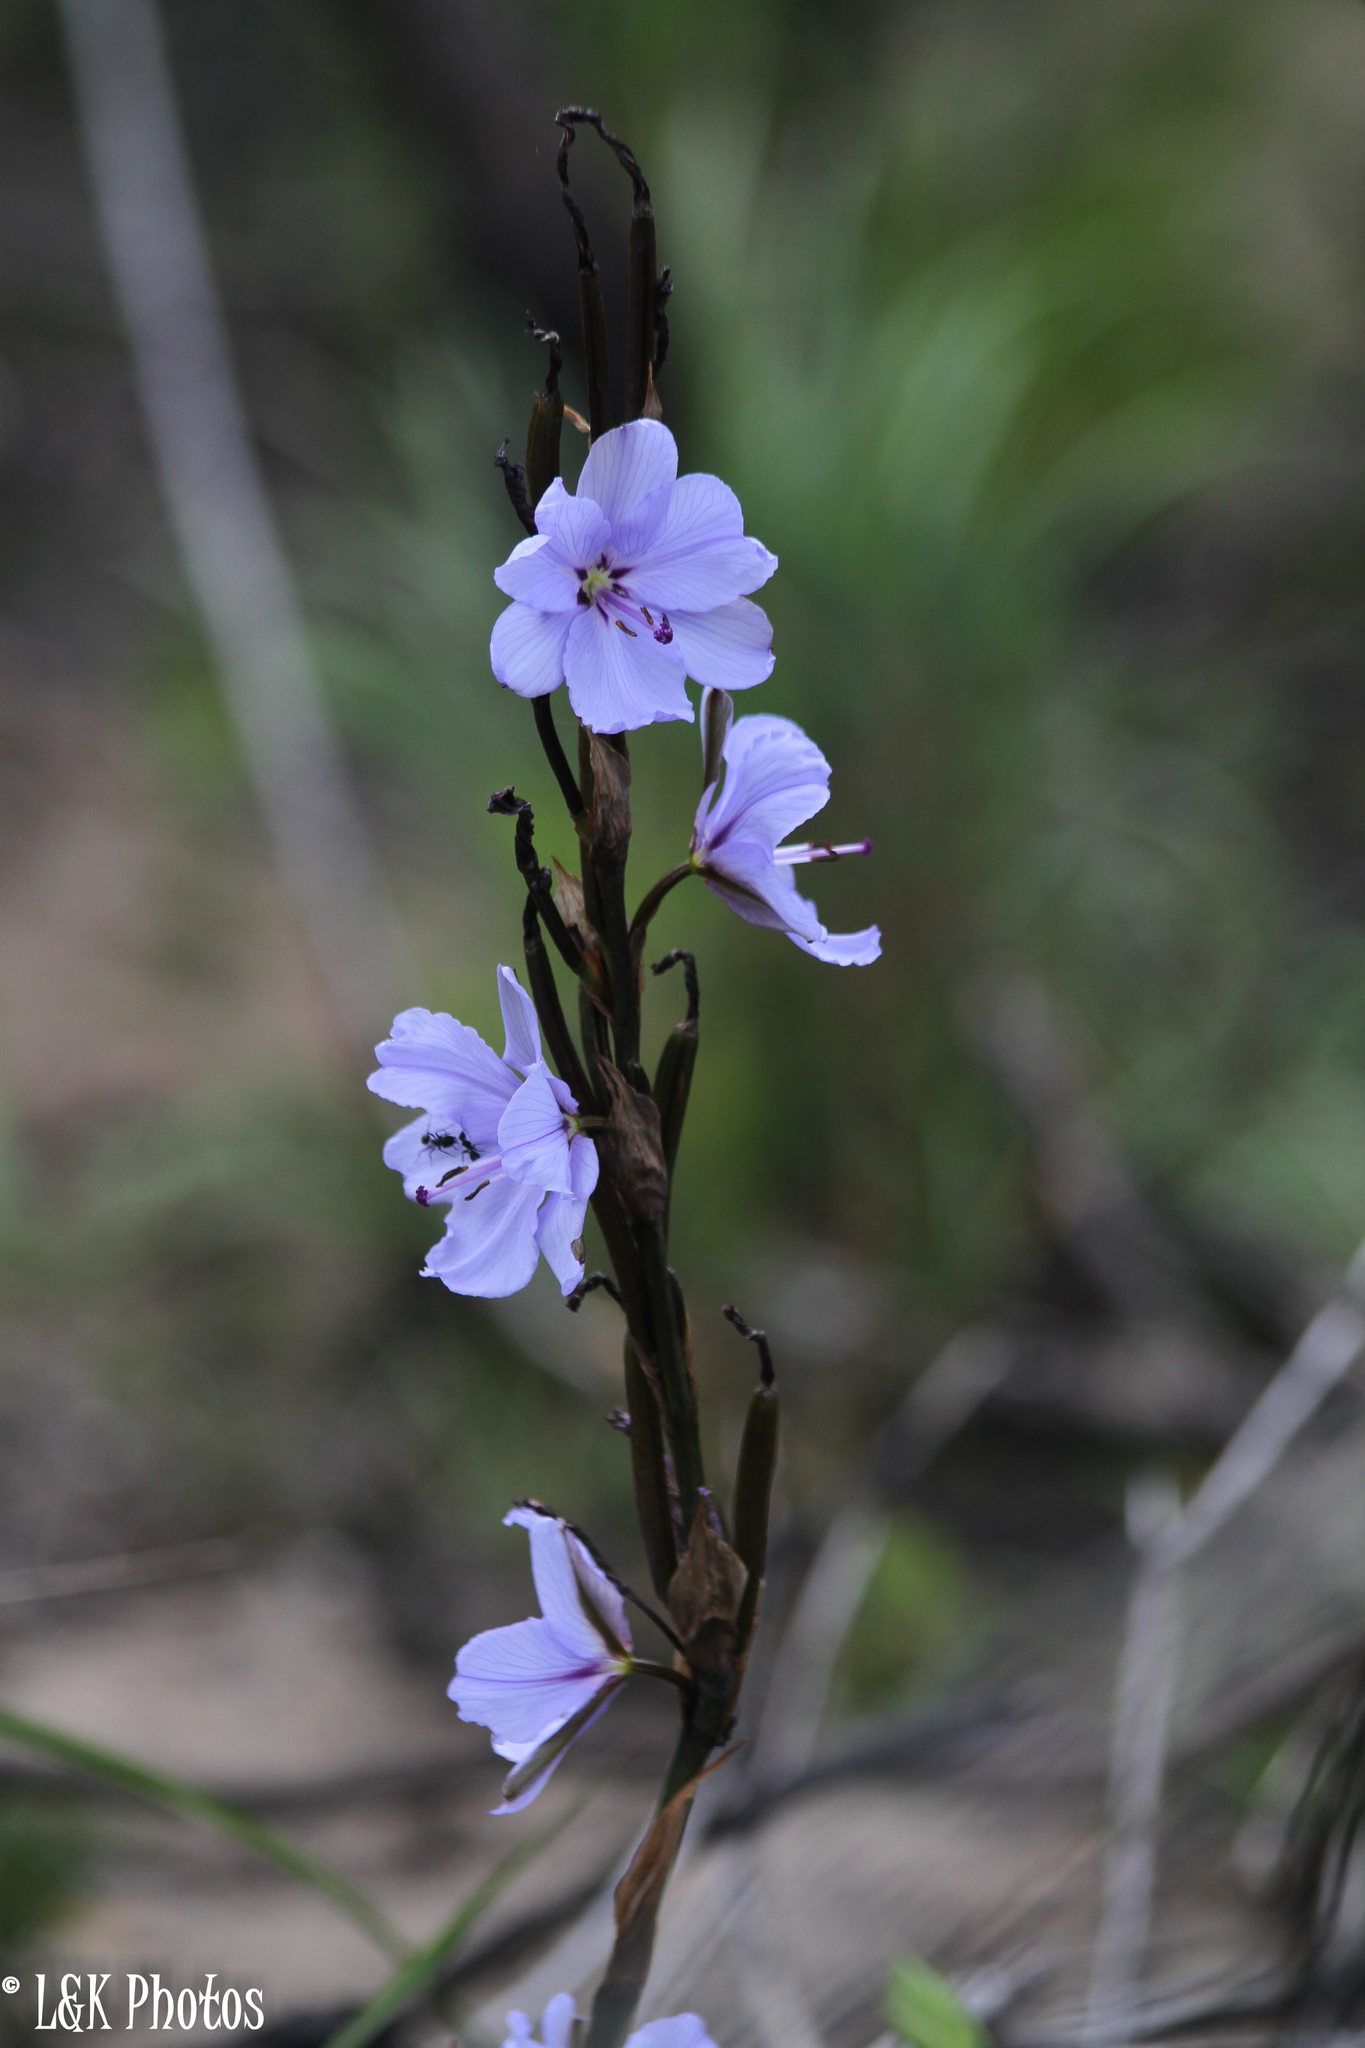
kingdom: Plantae
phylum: Tracheophyta
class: Liliopsida
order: Asparagales
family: Iridaceae
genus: Aristea
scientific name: Aristea spiralis
